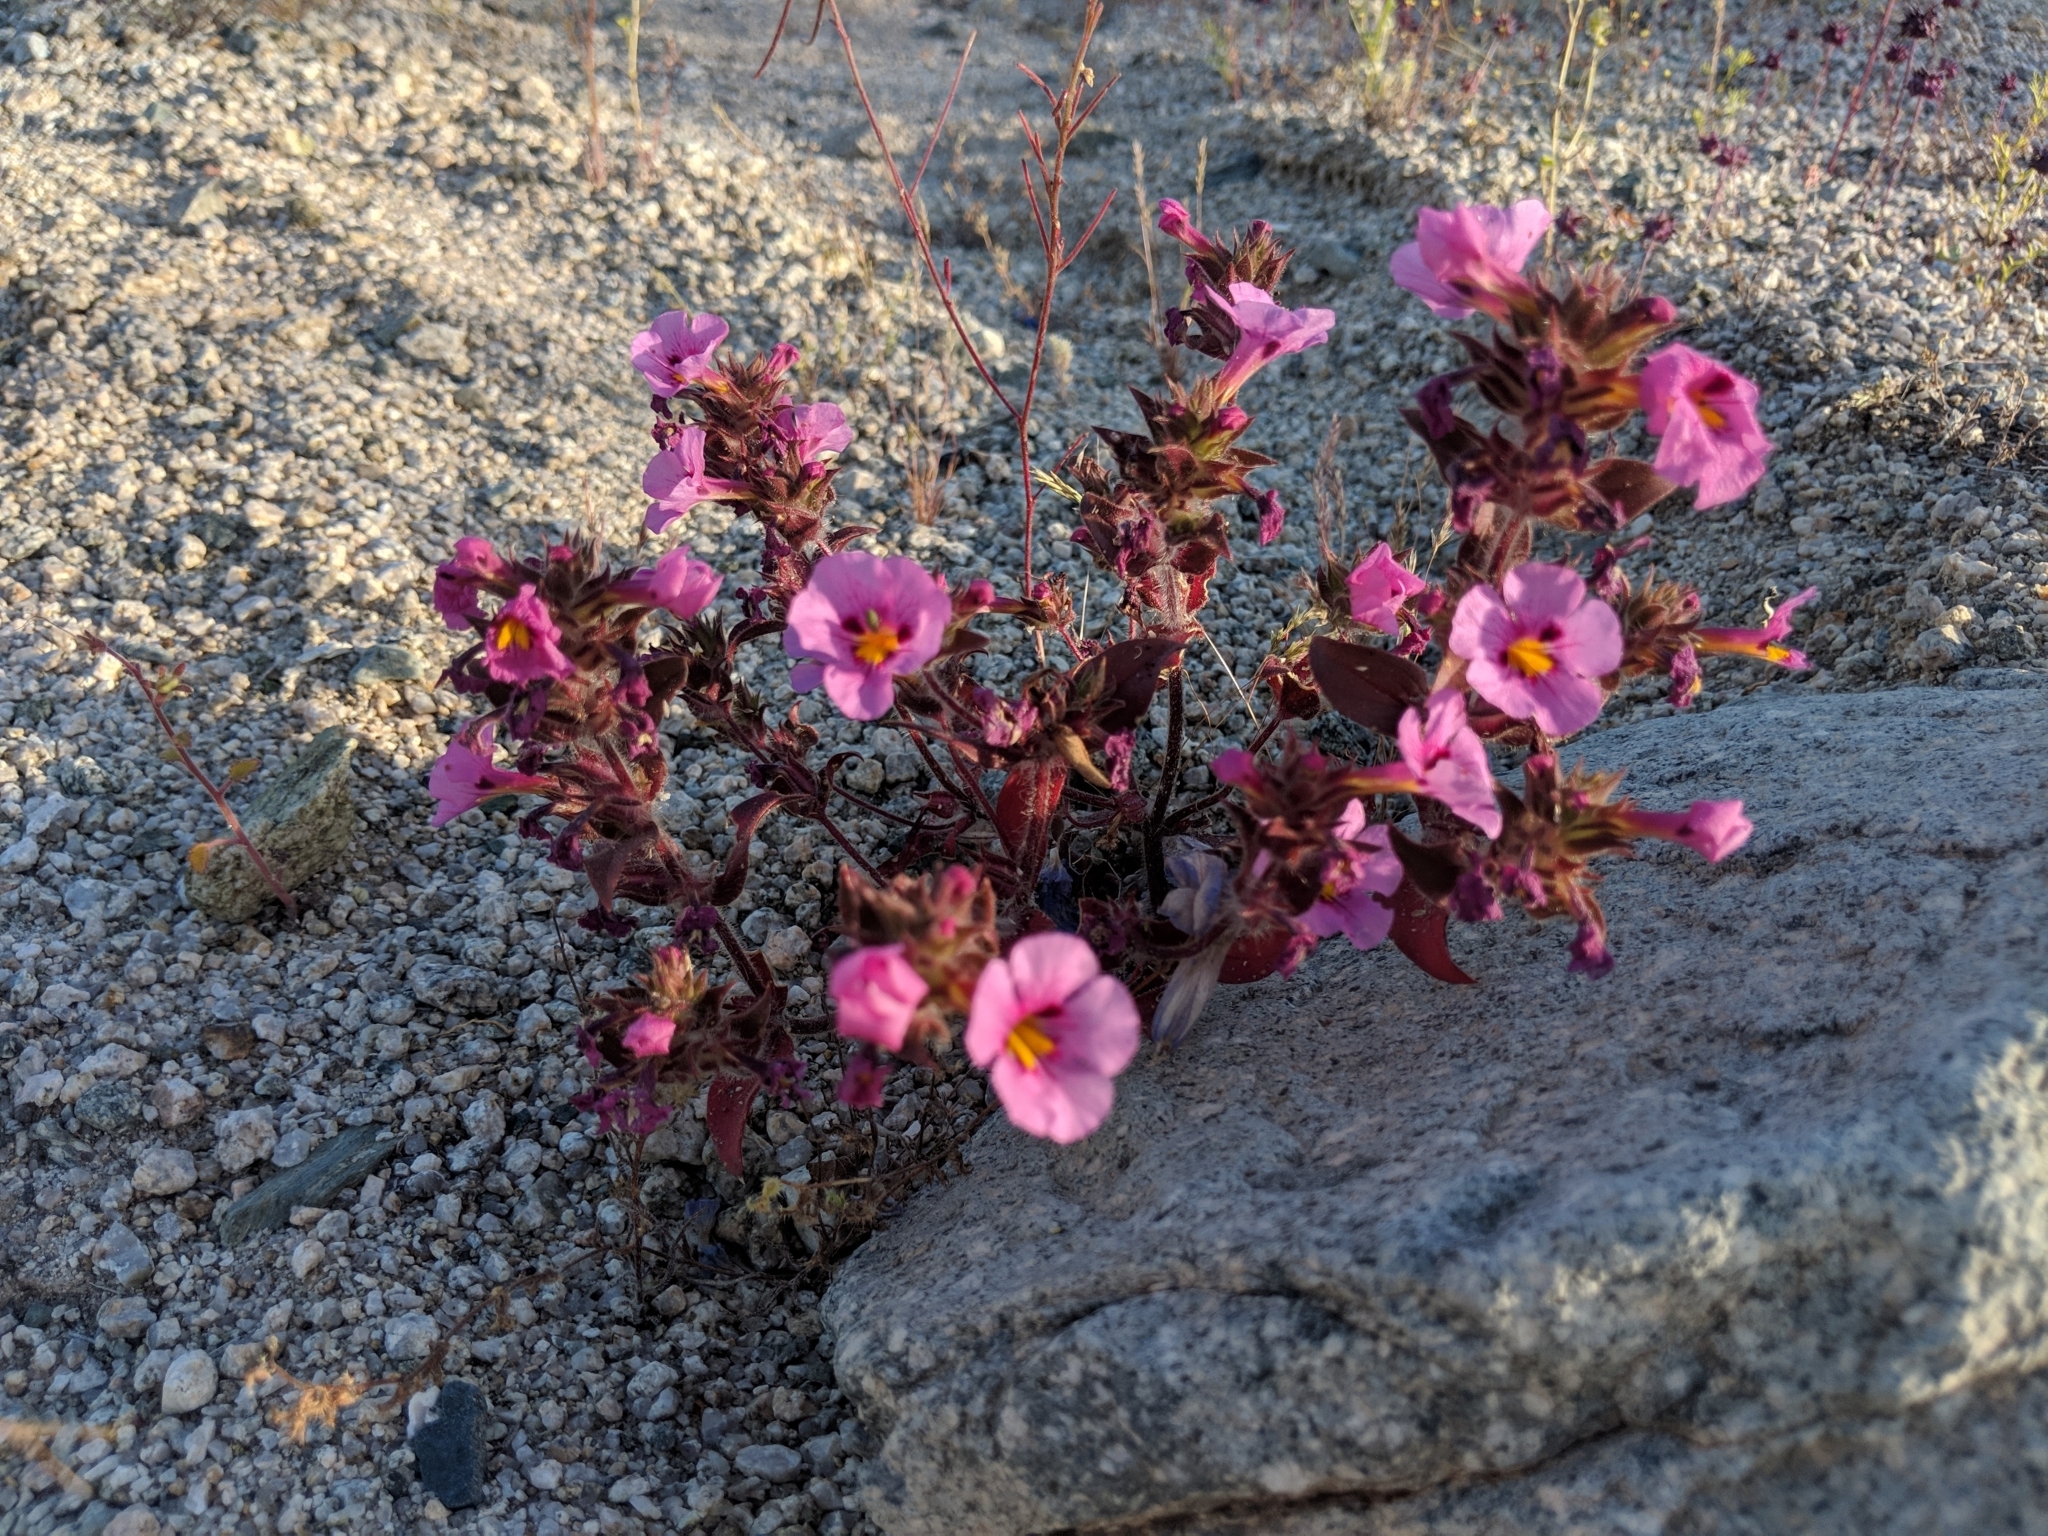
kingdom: Plantae
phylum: Tracheophyta
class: Magnoliopsida
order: Lamiales
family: Phrymaceae
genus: Diplacus
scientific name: Diplacus bigelovii
